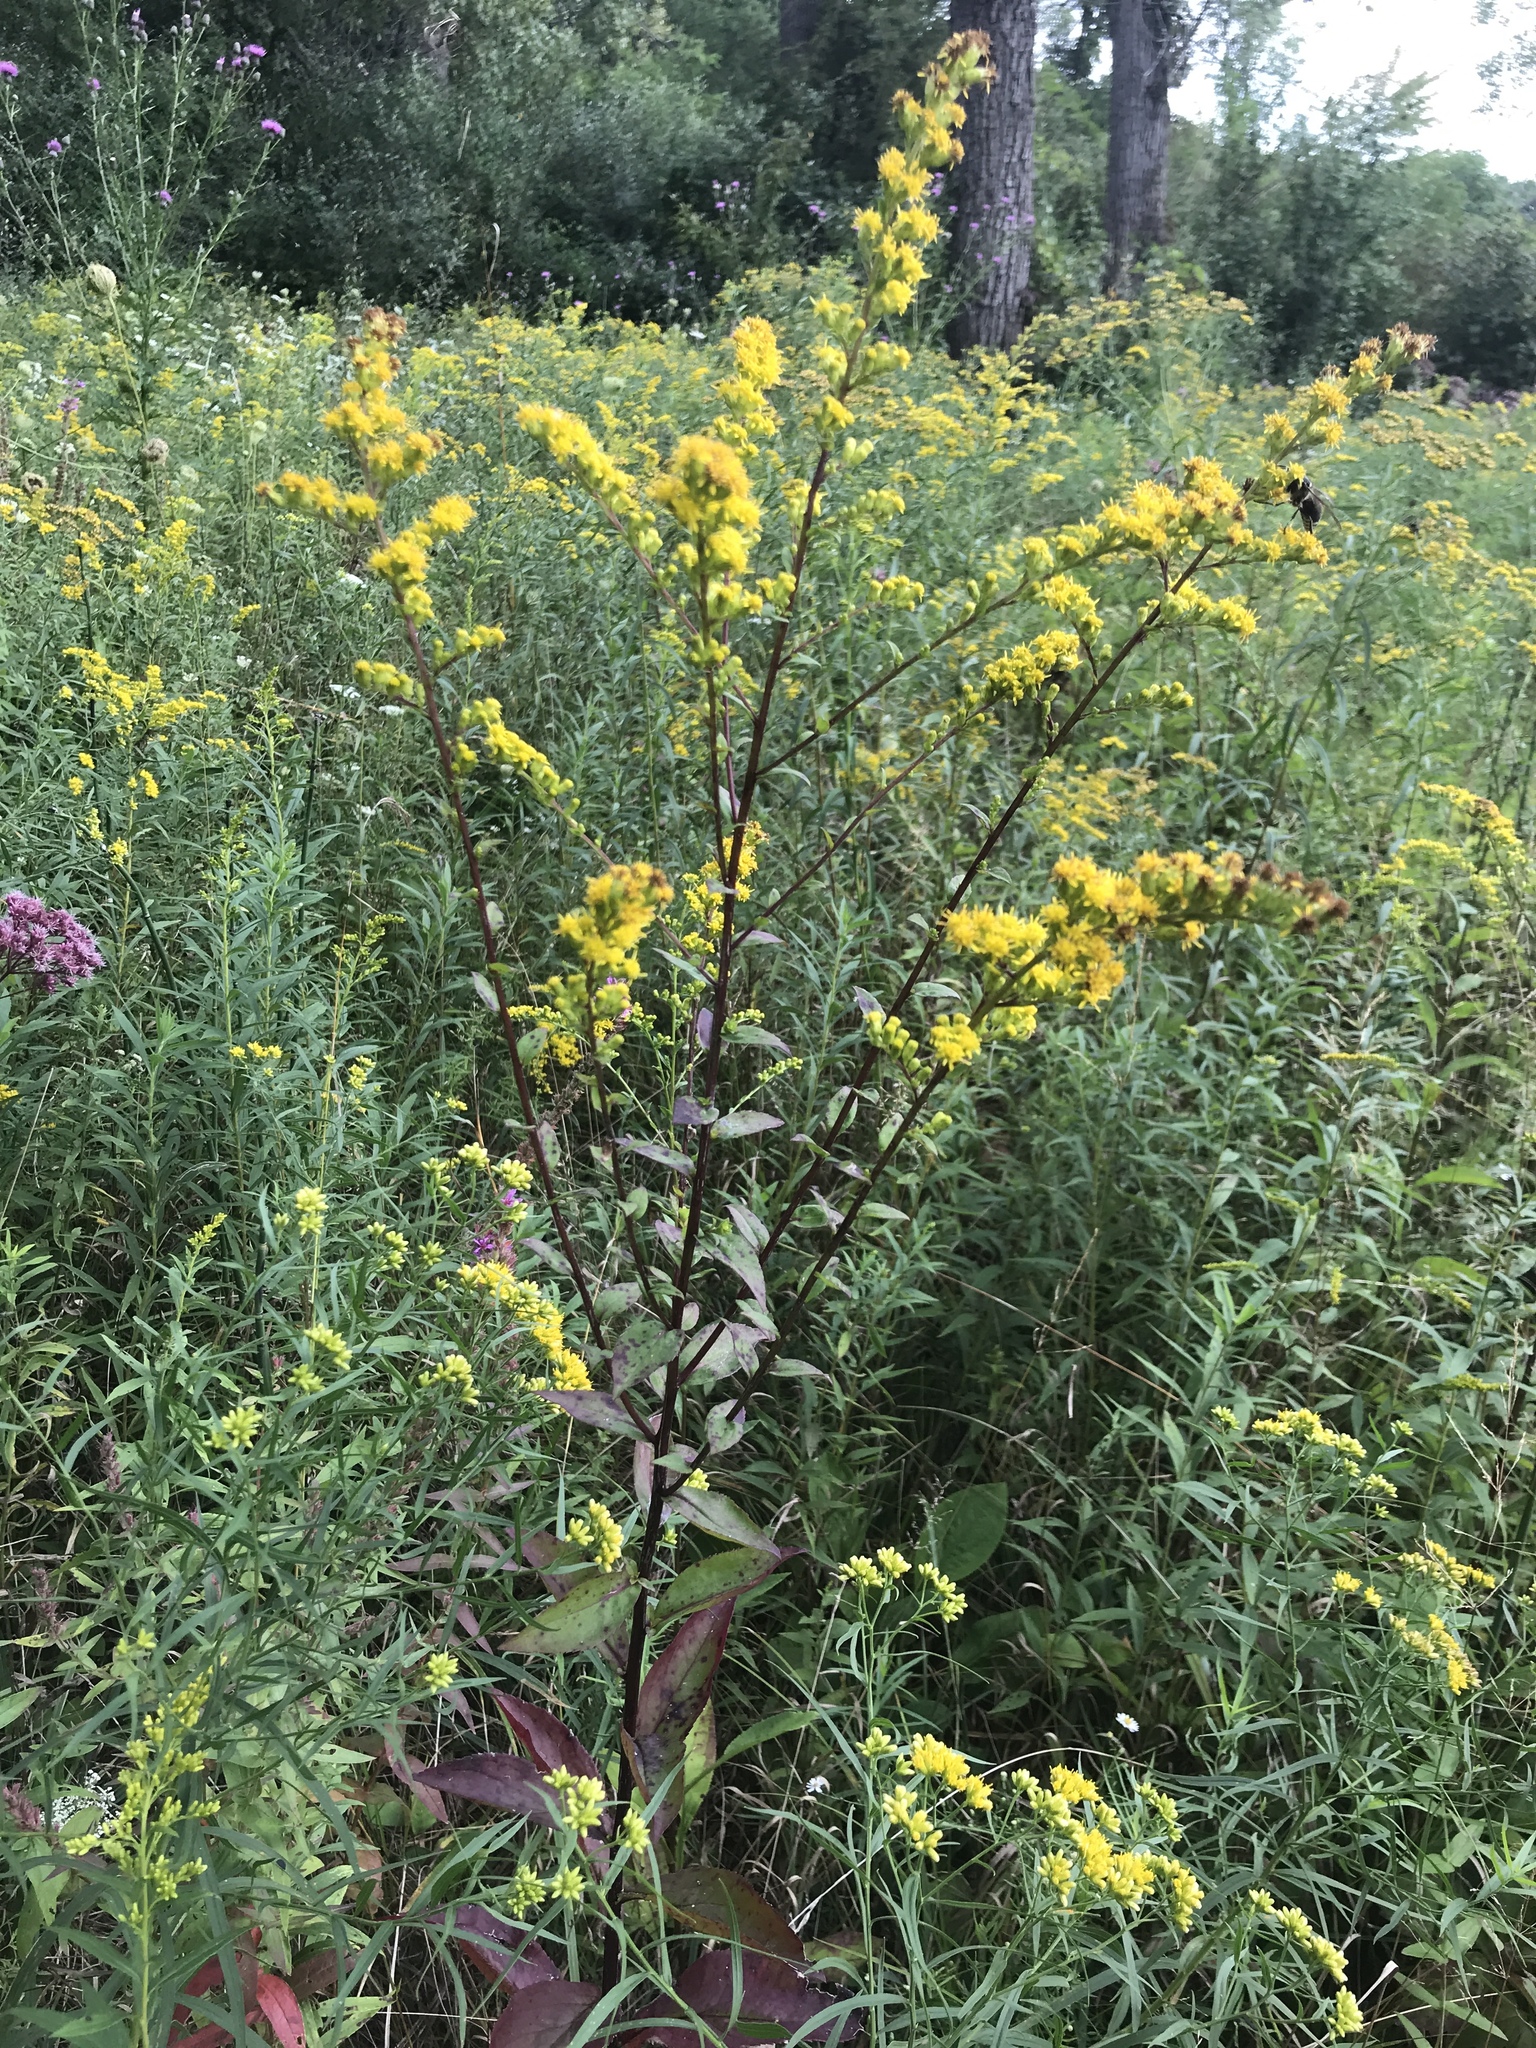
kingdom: Plantae
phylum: Tracheophyta
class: Magnoliopsida
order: Asterales
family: Asteraceae
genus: Solidago
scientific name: Solidago patula
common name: Rough-leaf goldenrod
